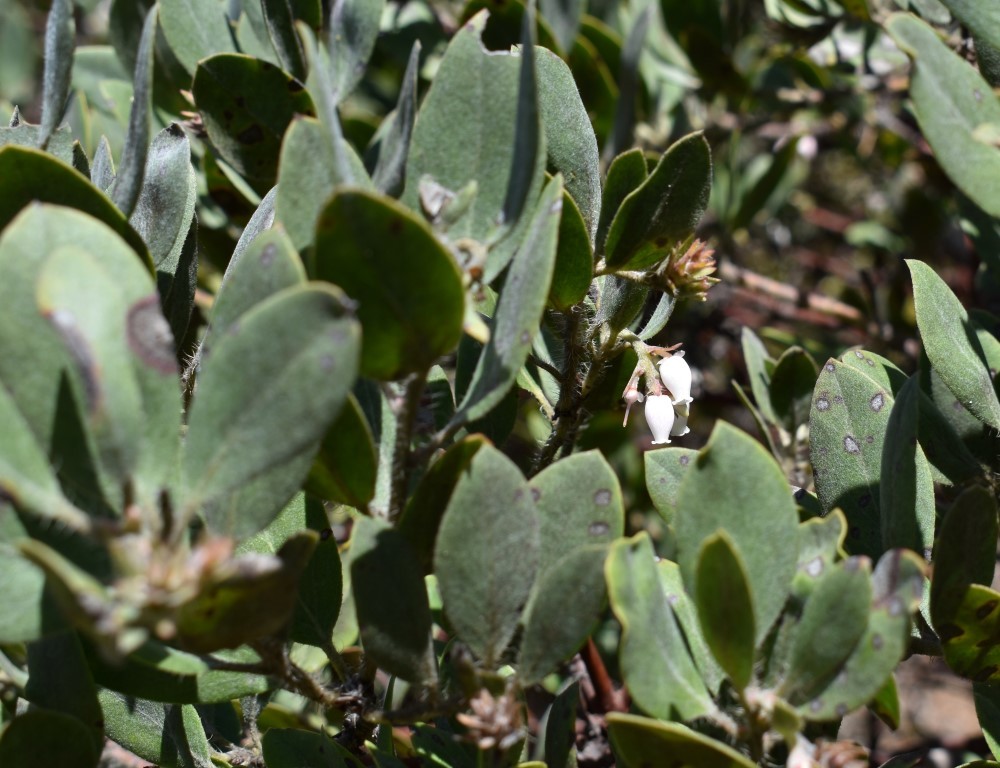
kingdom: Plantae
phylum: Tracheophyta
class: Magnoliopsida
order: Ericales
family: Ericaceae
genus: Arctostaphylos
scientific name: Arctostaphylos columbiana
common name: Bristly bearberry
